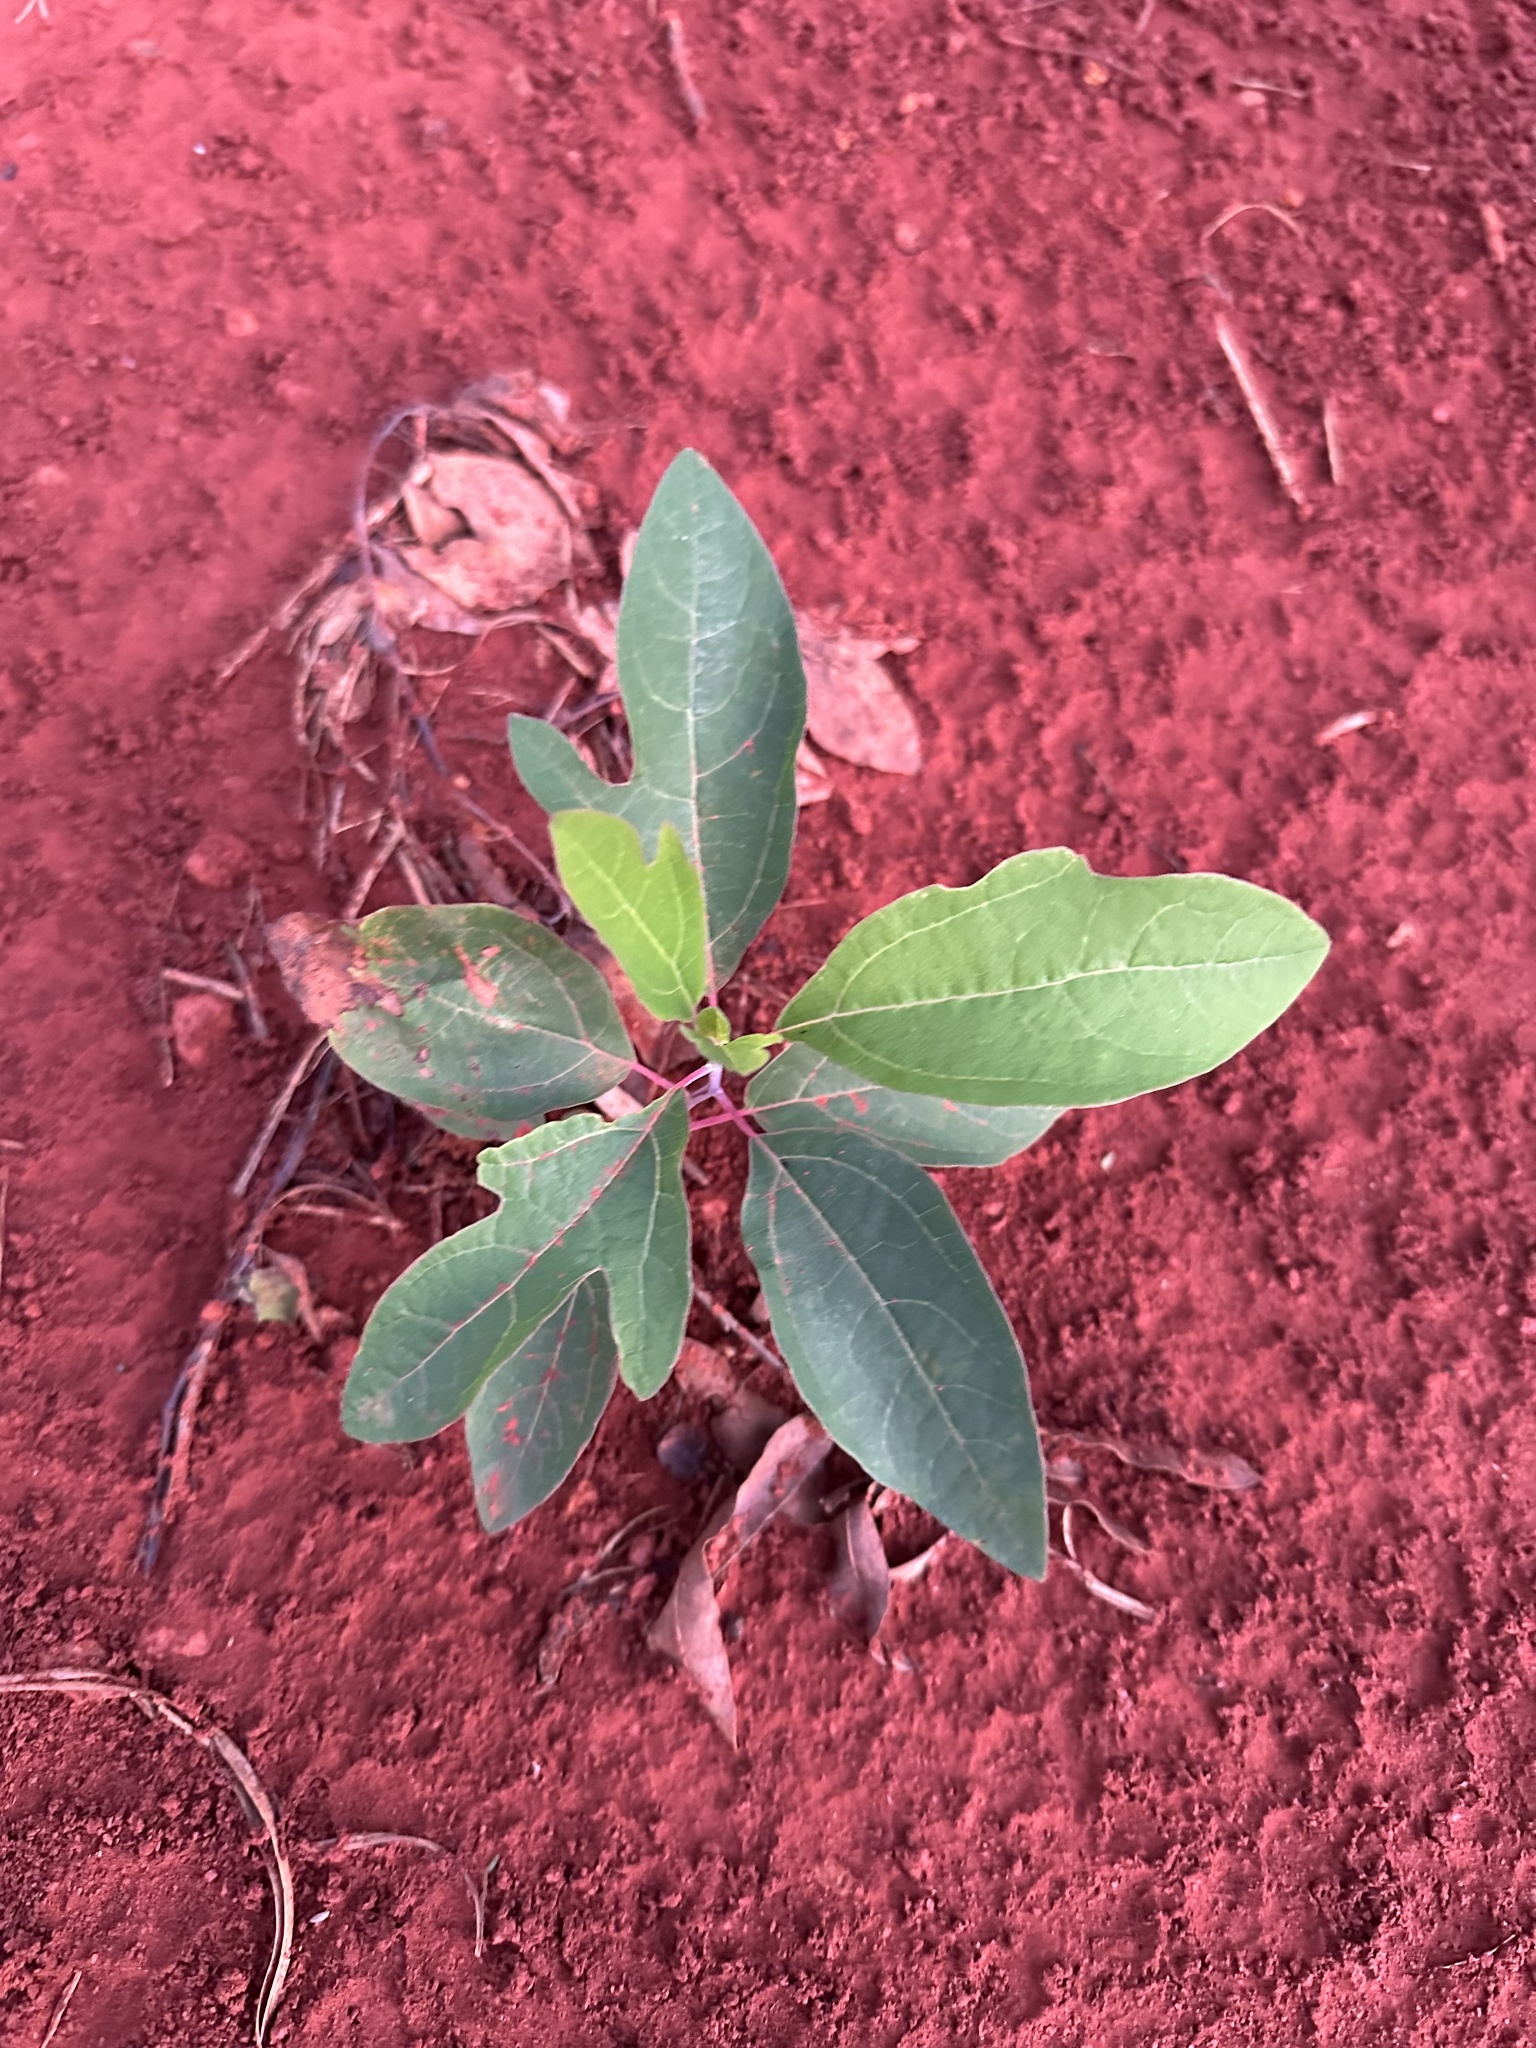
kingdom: Plantae
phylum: Tracheophyta
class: Magnoliopsida
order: Laurales
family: Lauraceae
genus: Sassafras
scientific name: Sassafras albidum
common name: Sassafras
